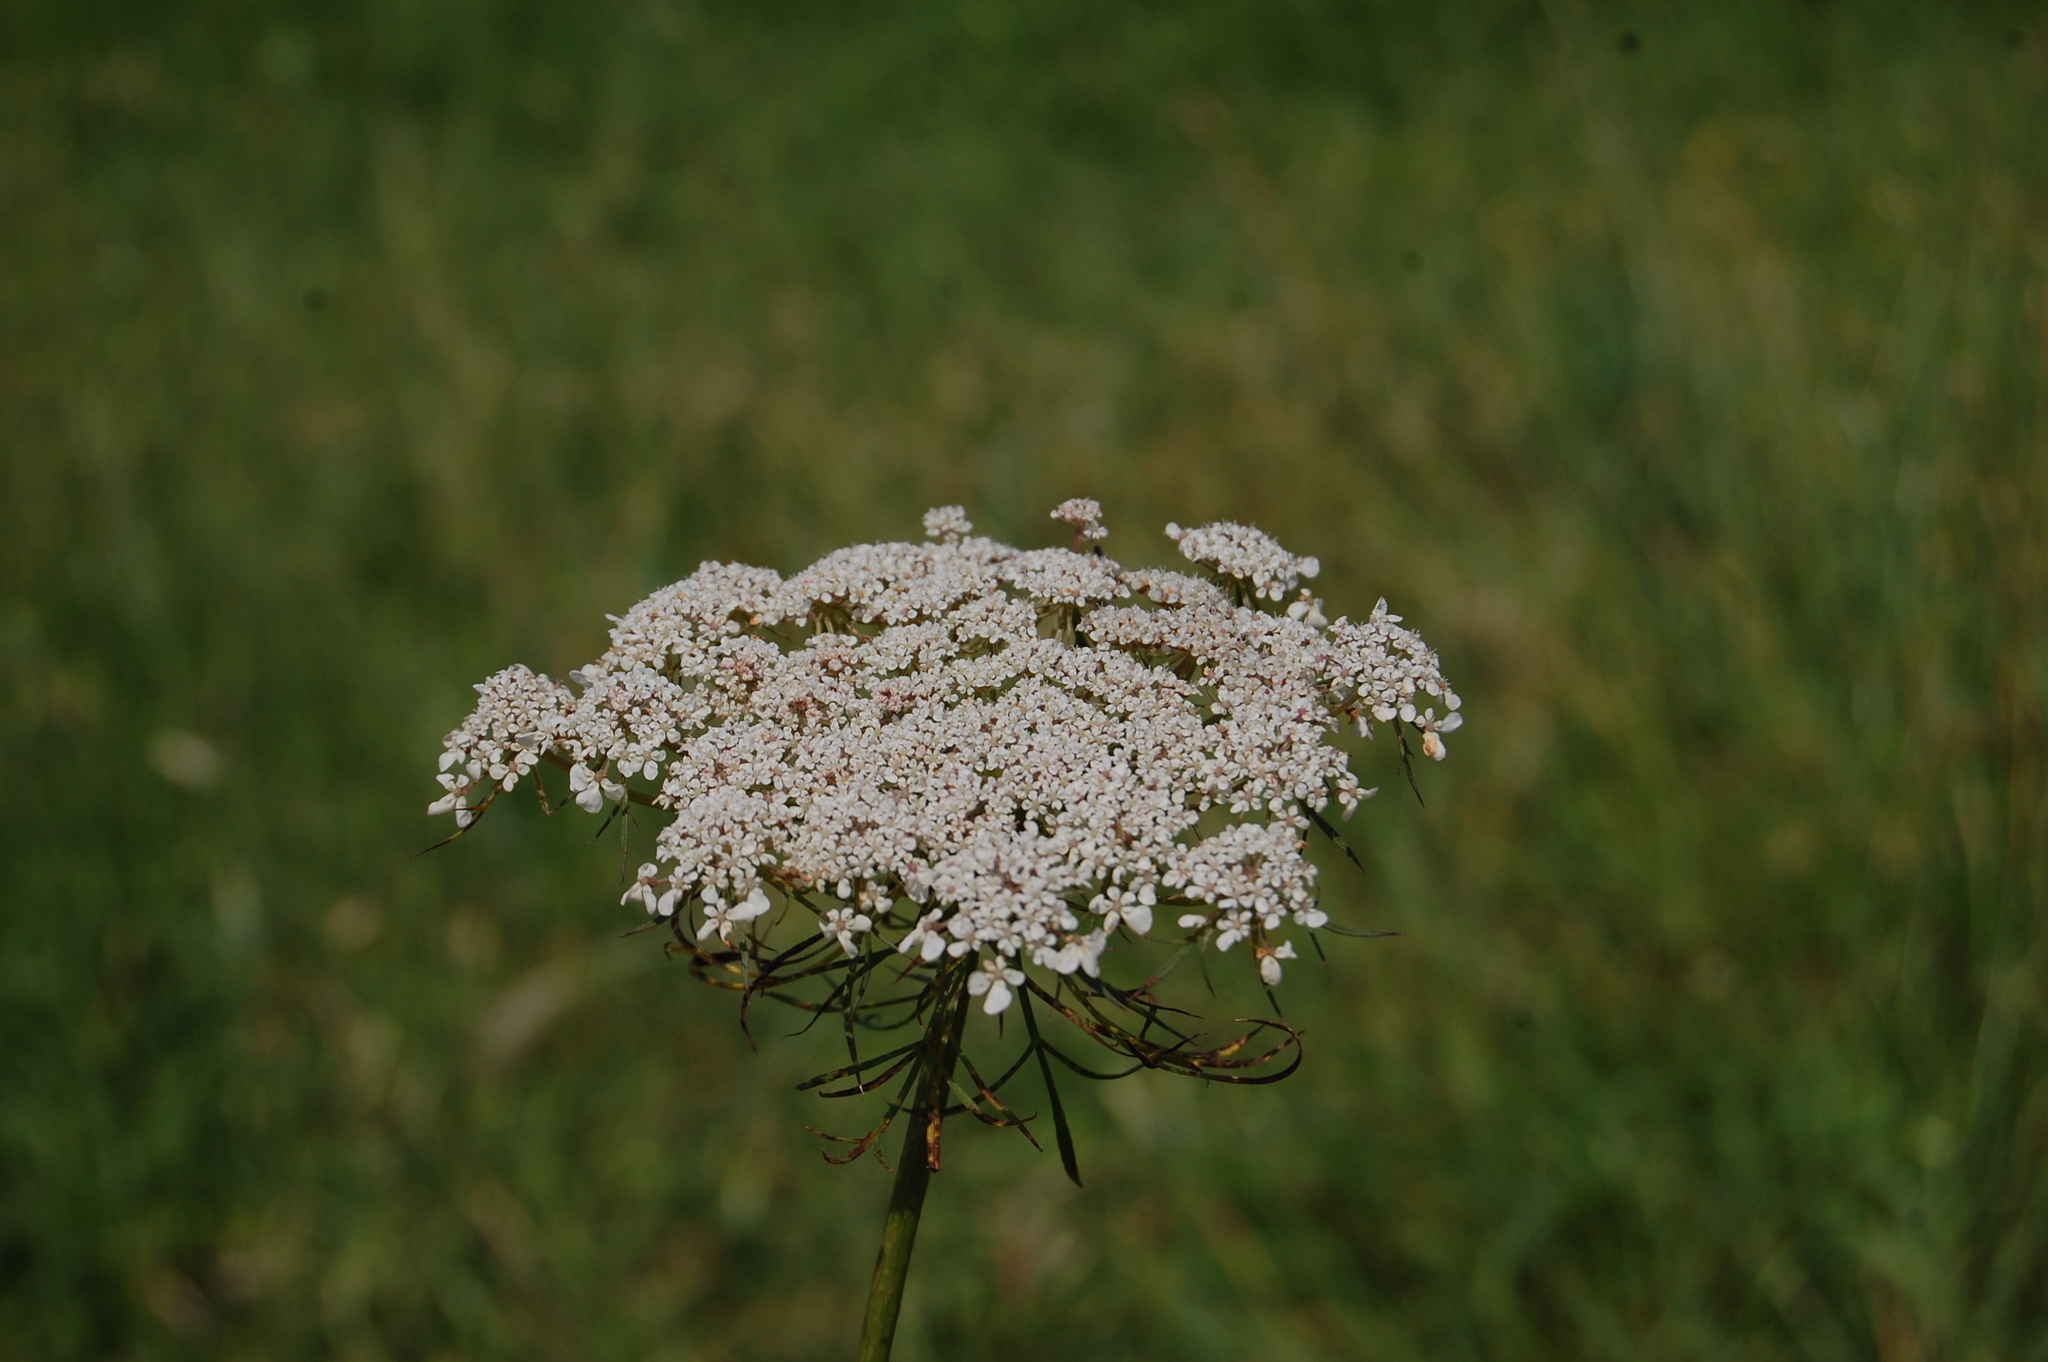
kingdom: Plantae
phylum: Tracheophyta
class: Magnoliopsida
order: Apiales
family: Apiaceae
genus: Daucus
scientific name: Daucus carota
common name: Wild carrot
